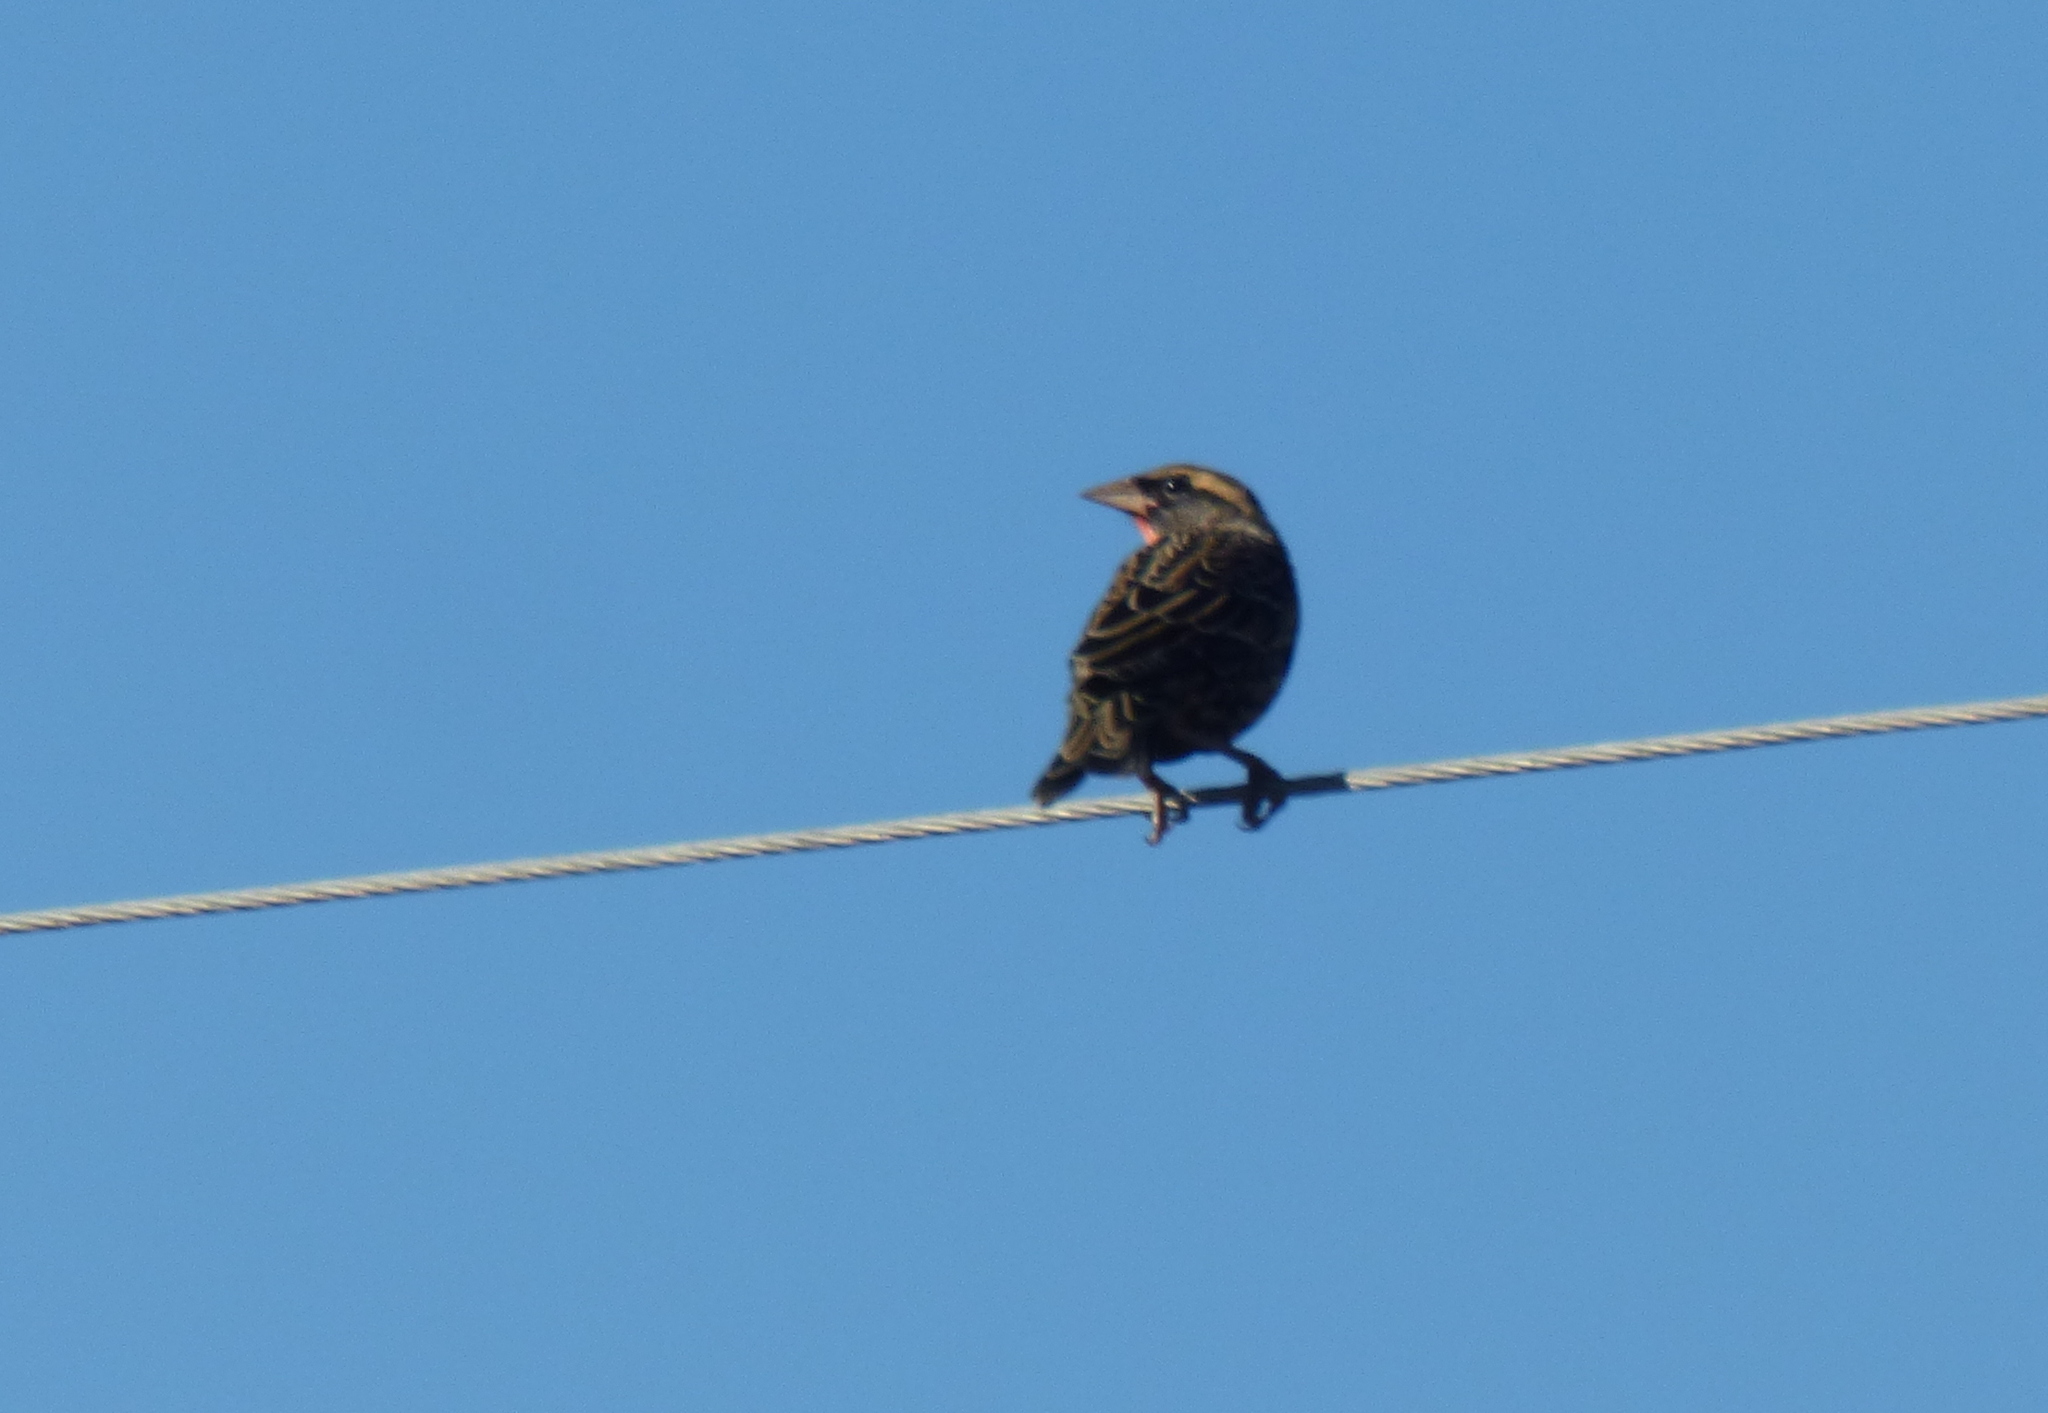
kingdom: Animalia
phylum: Chordata
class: Aves
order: Passeriformes
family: Icteridae
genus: Sturnella
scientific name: Sturnella superciliaris
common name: White-browed blackbird
